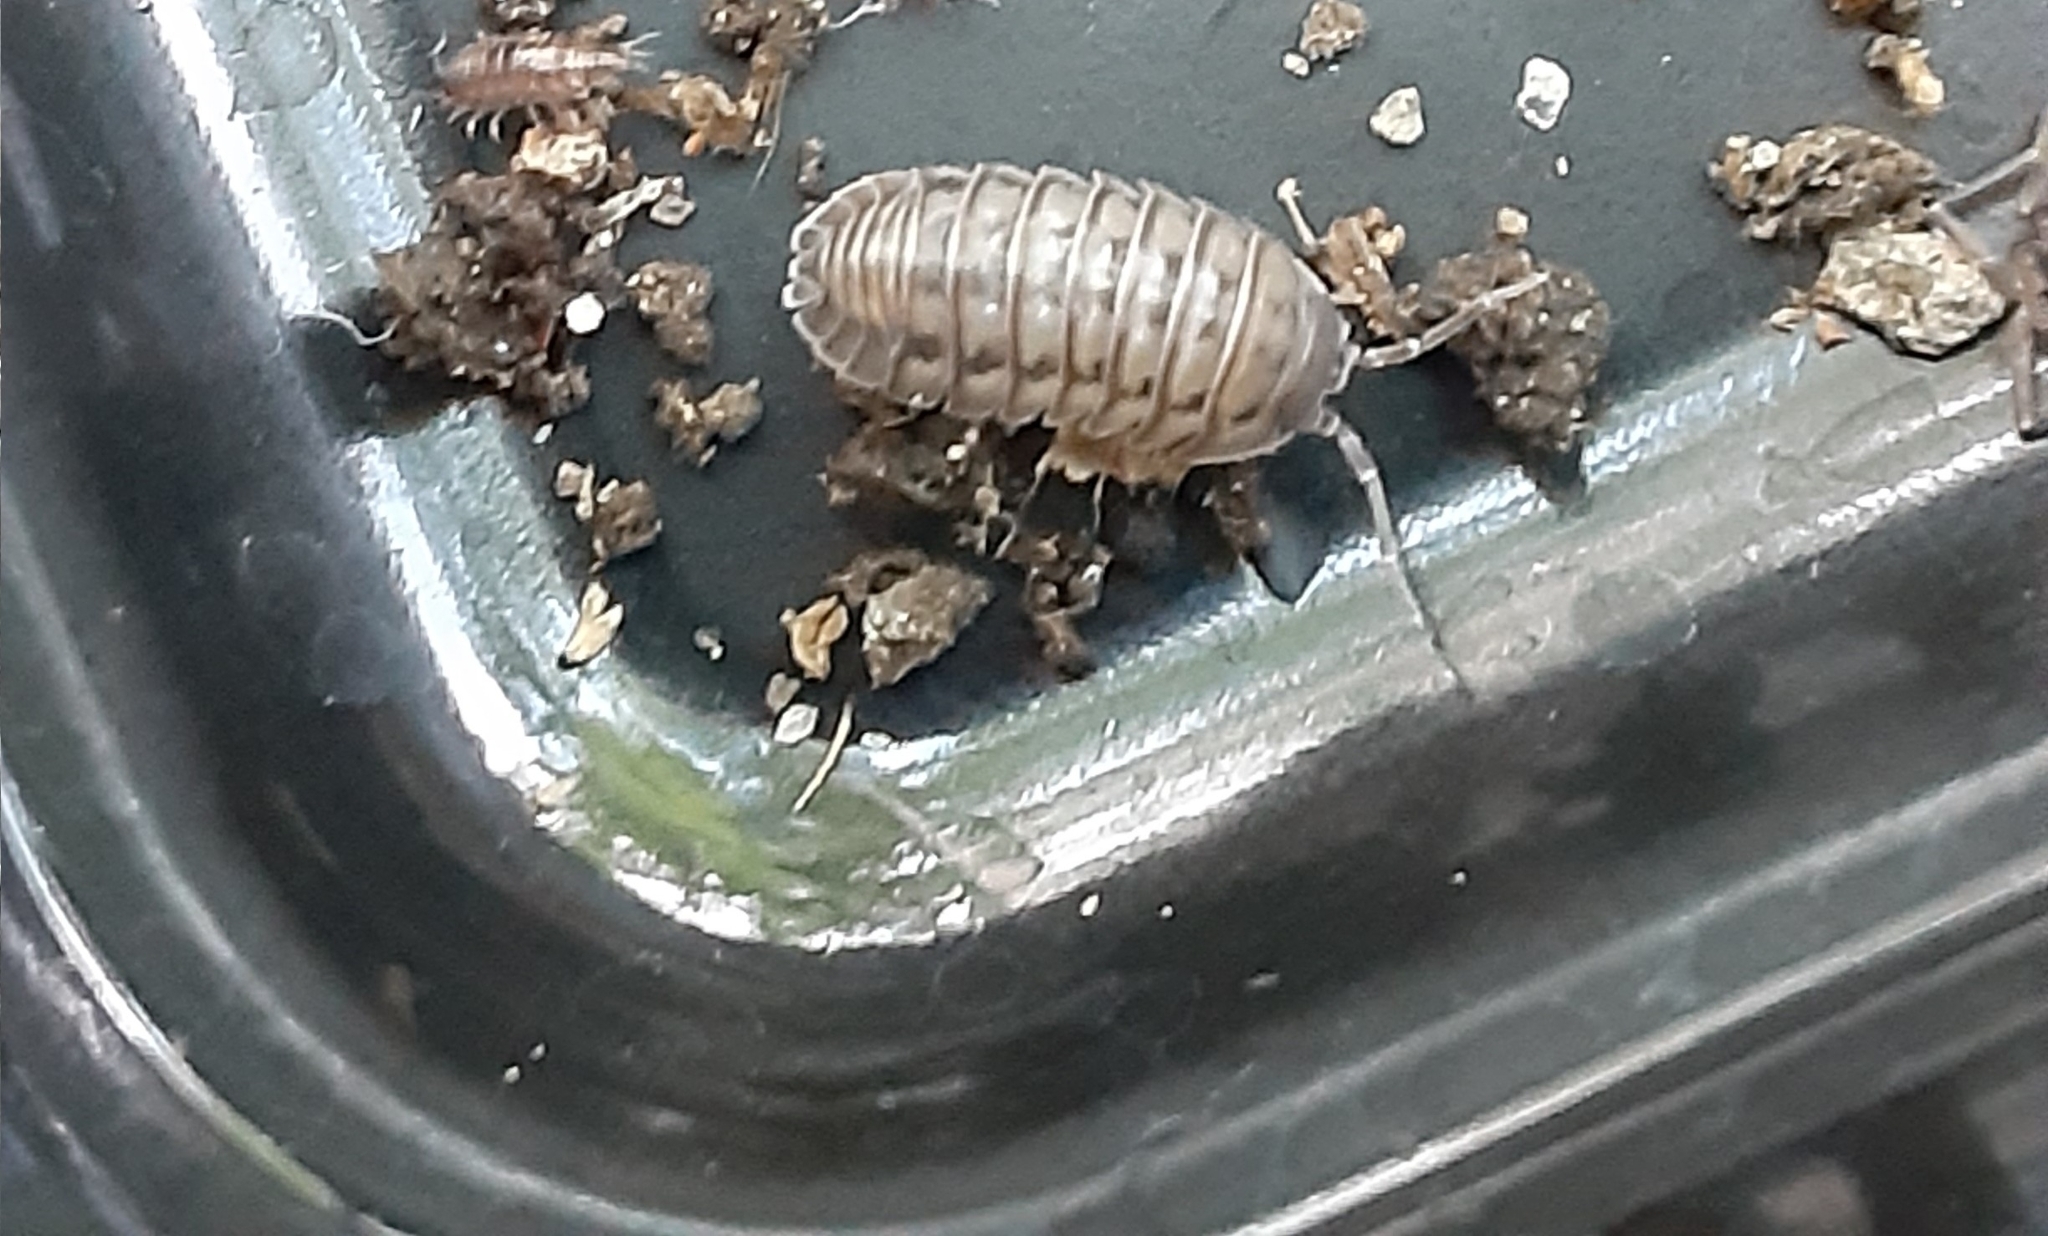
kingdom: Animalia
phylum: Arthropoda
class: Malacostraca
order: Isopoda
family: Armadillidiidae
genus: Armadillidium
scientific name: Armadillidium nasatum
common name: Isopod
